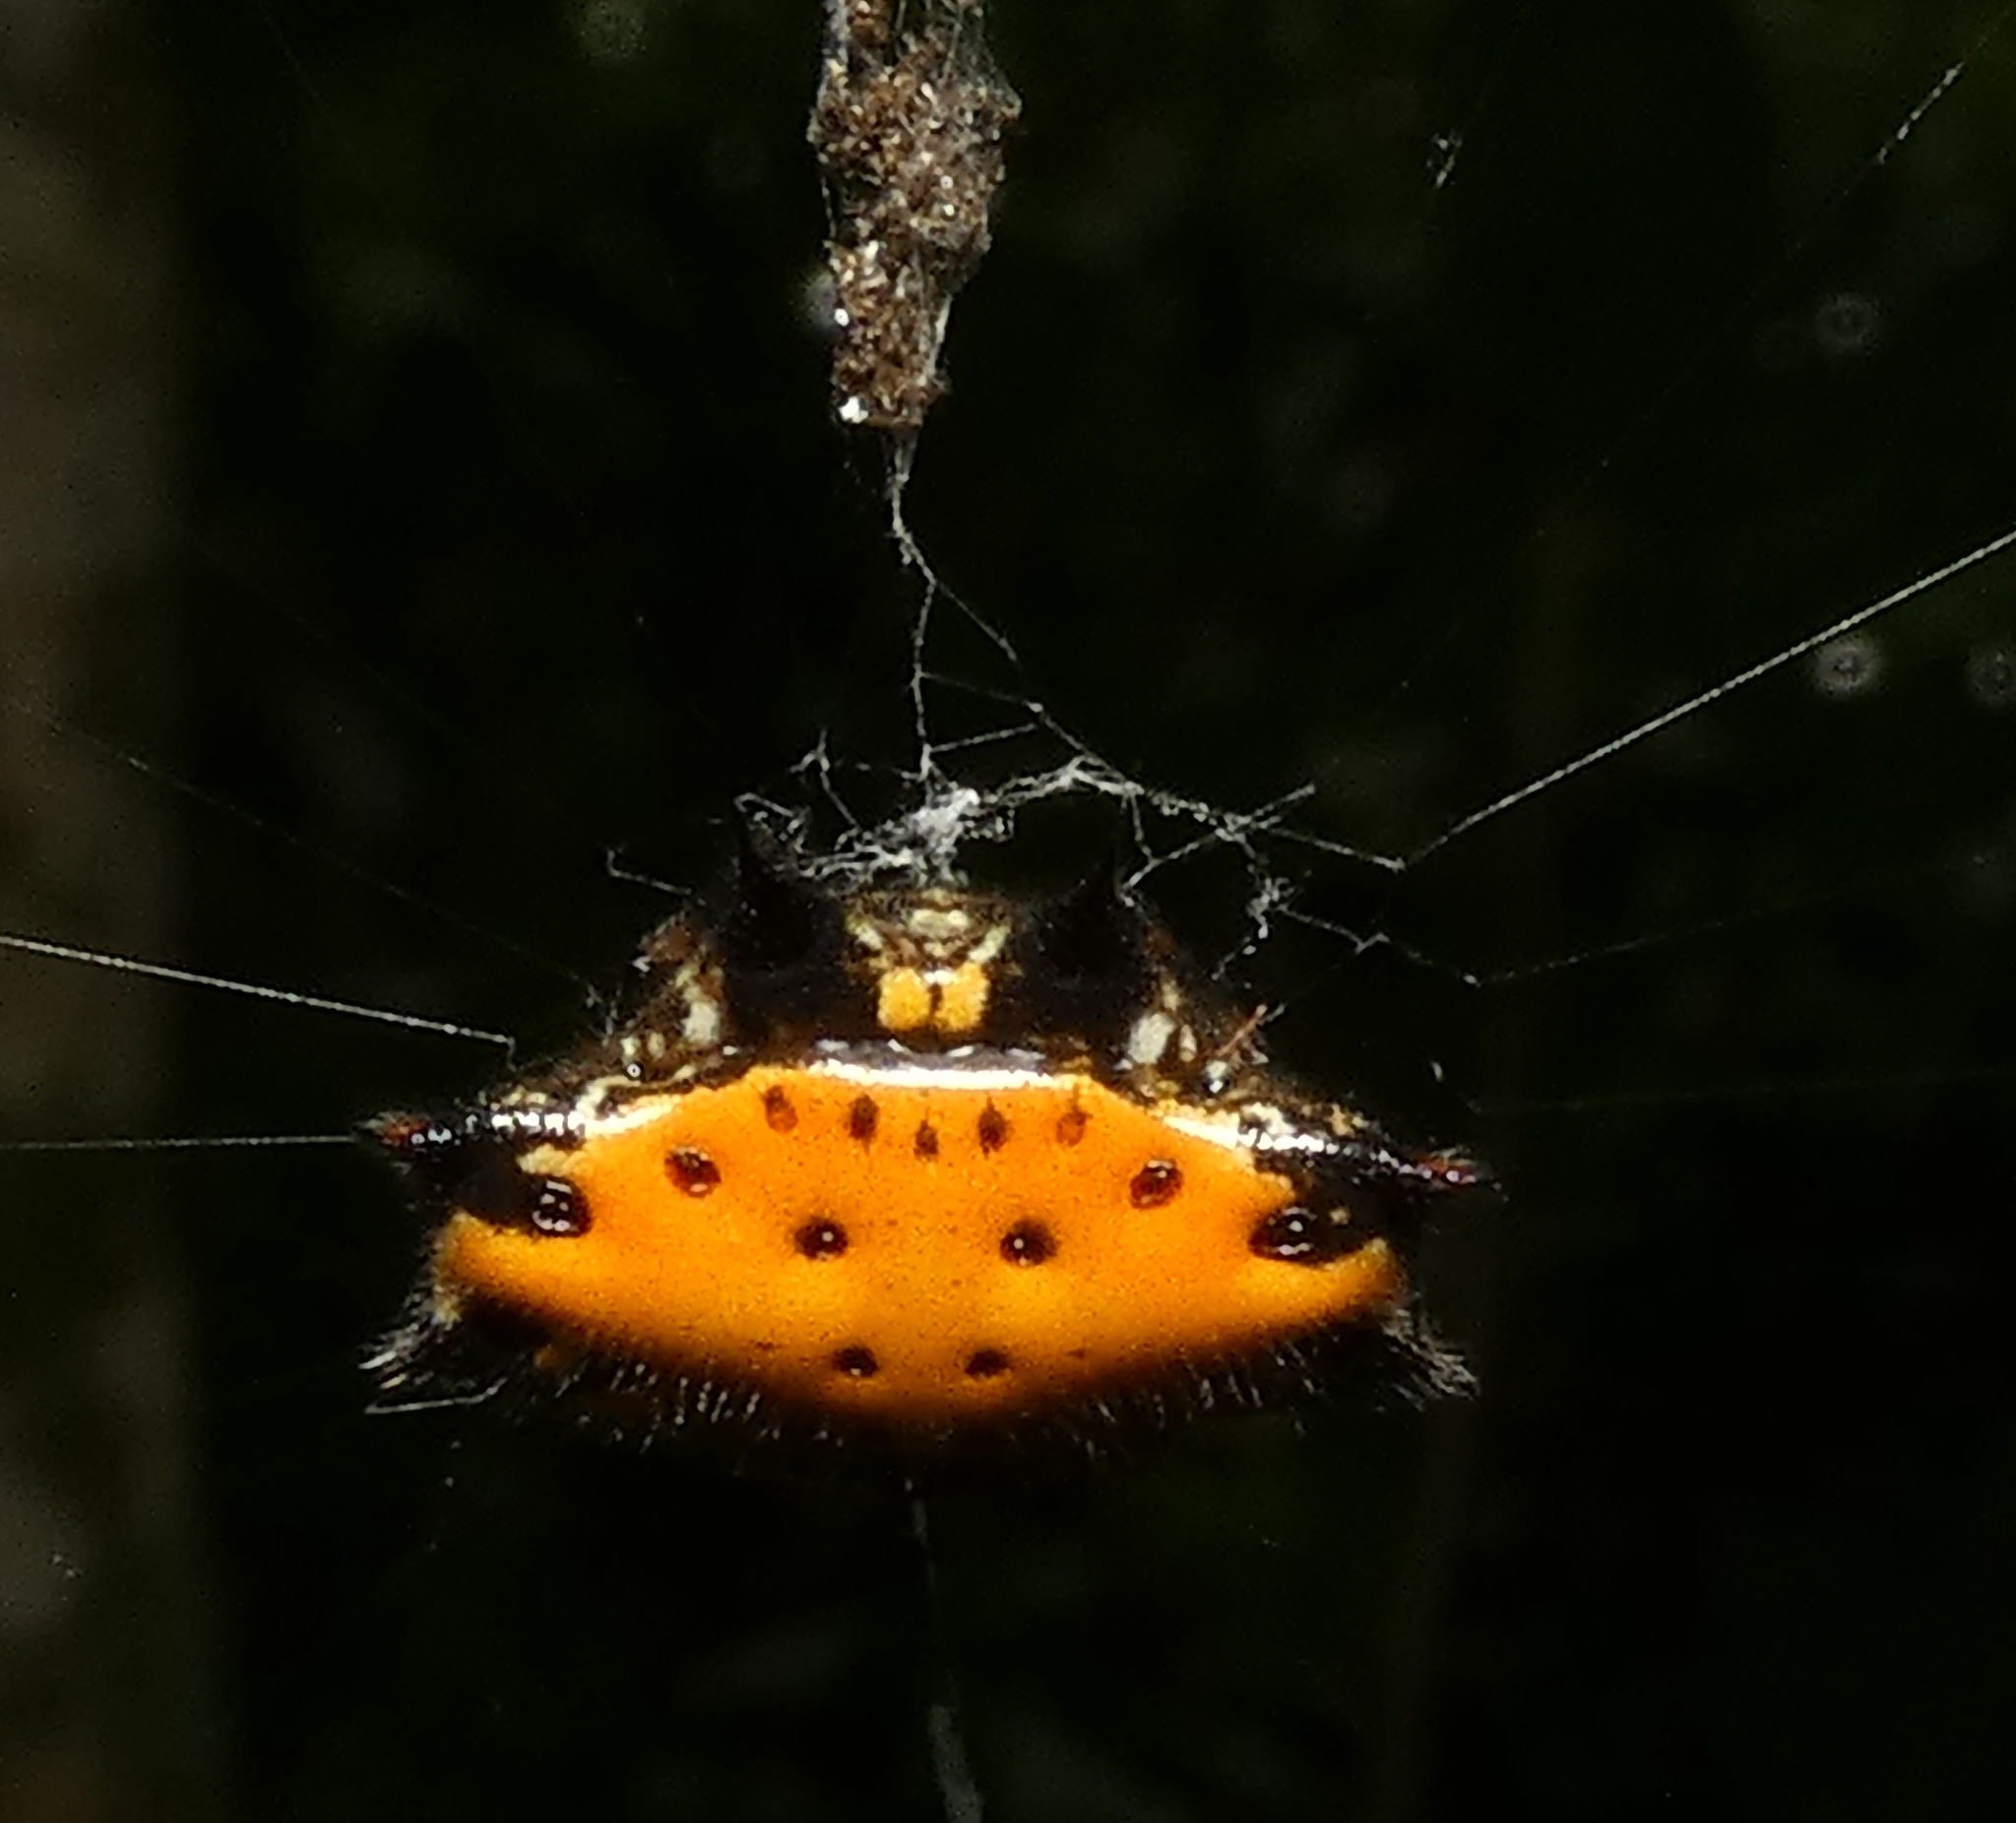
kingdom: Animalia
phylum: Arthropoda
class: Arachnida
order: Araneae
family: Araneidae
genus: Gasteracantha
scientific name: Gasteracantha cancriformis
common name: Orb weavers
